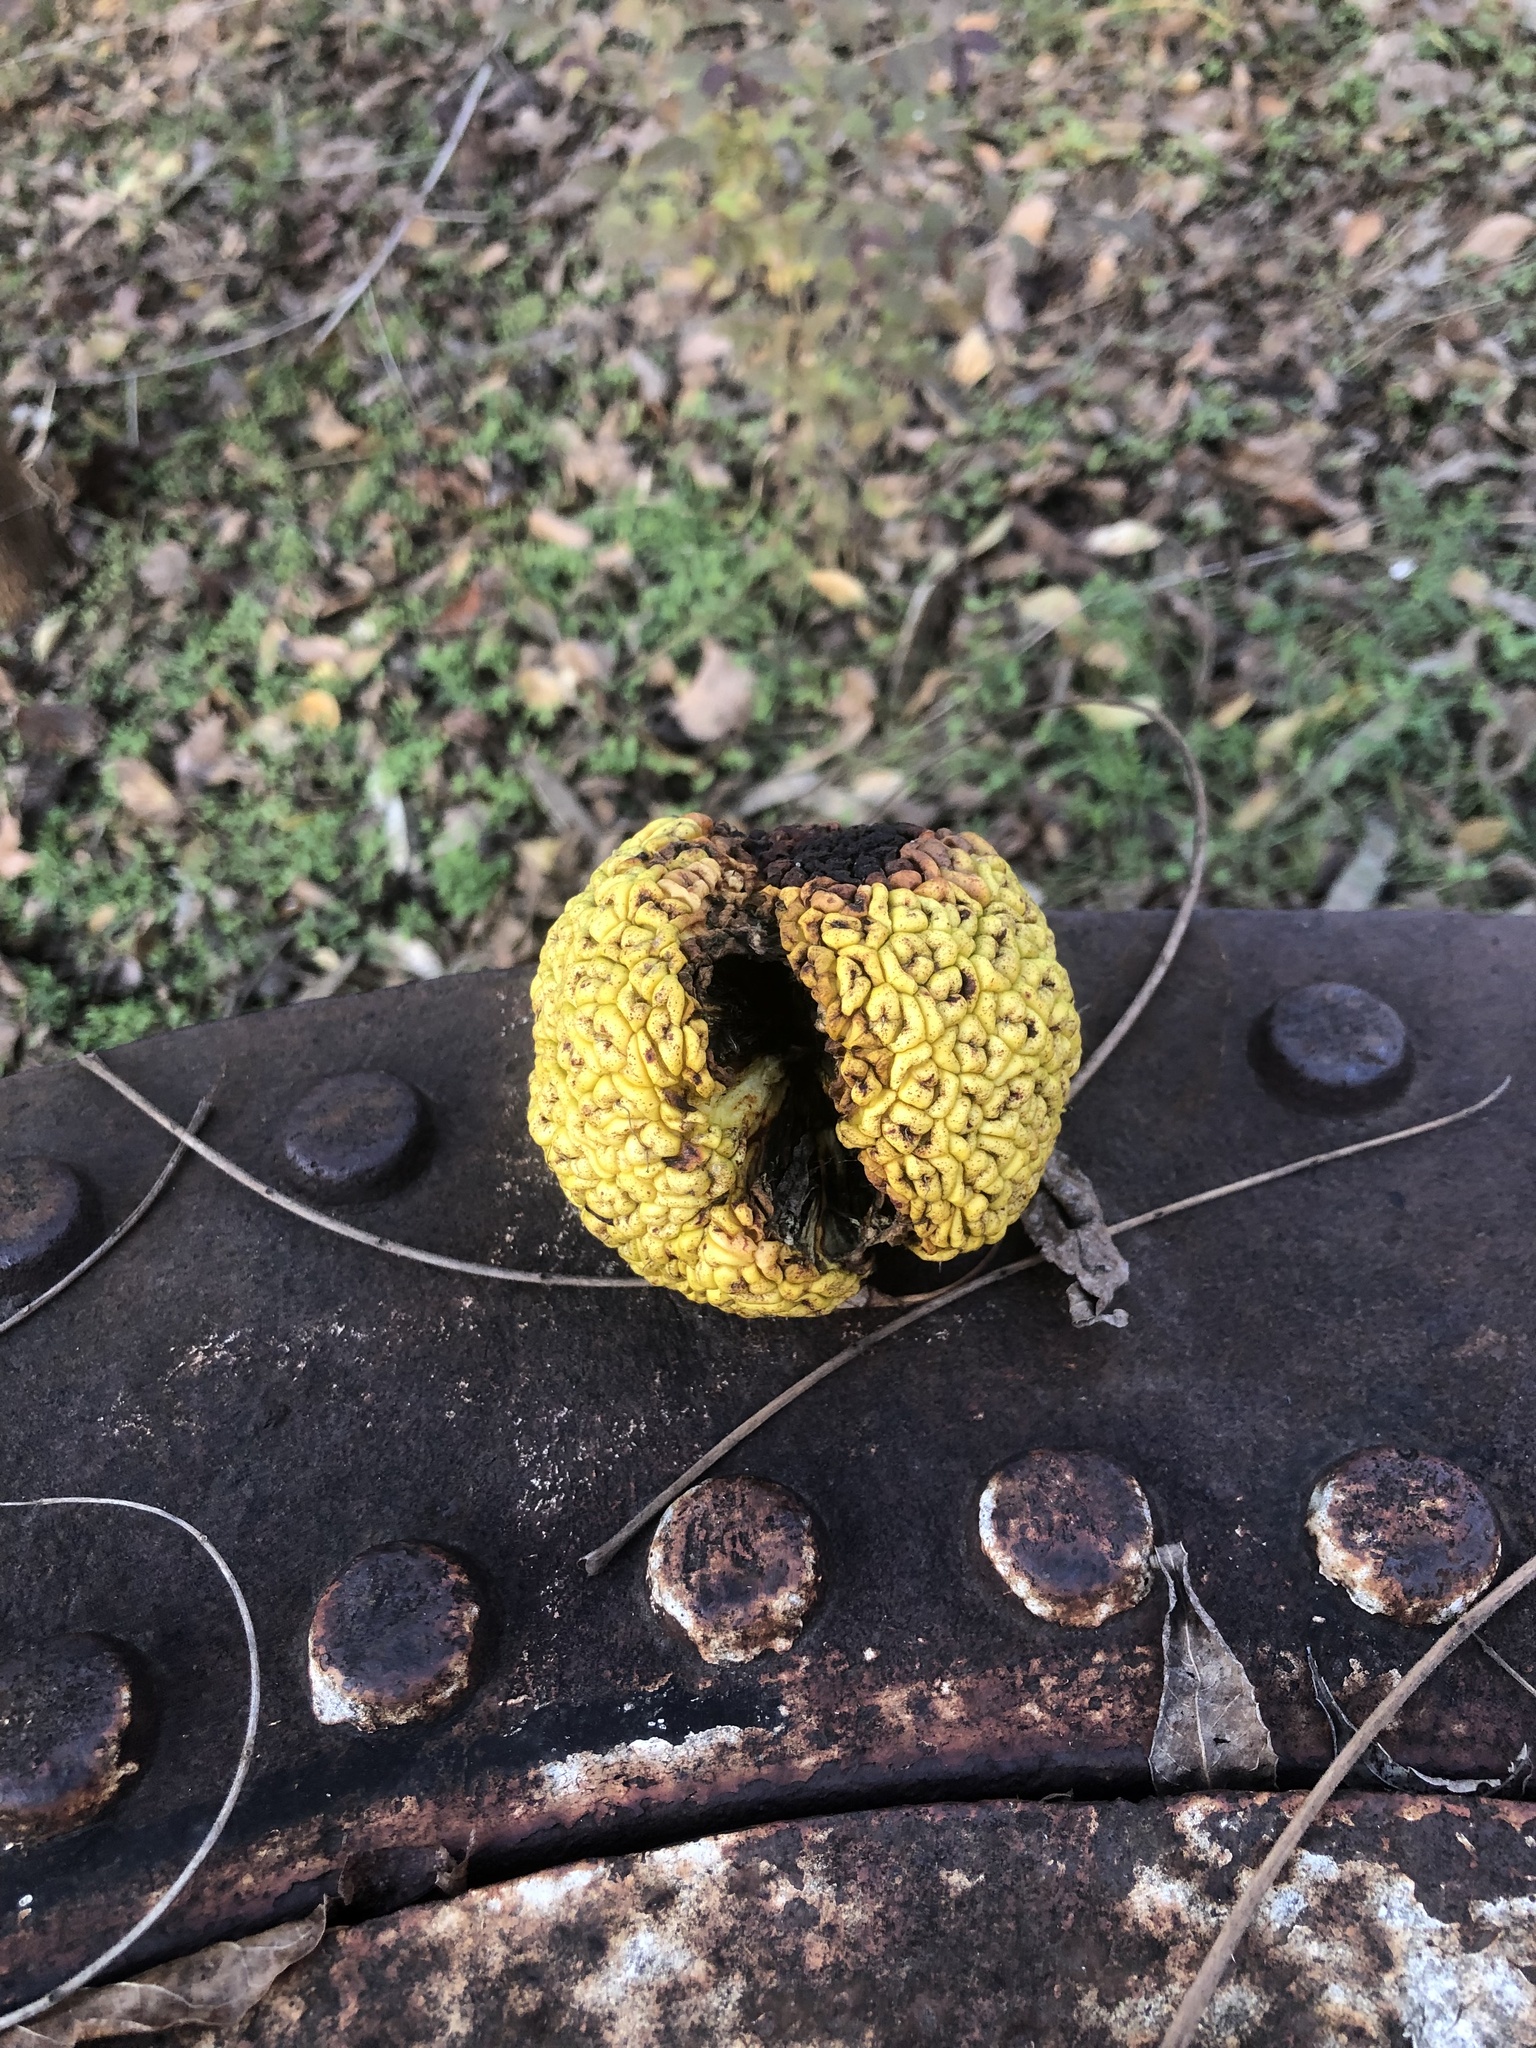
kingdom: Plantae
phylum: Tracheophyta
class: Magnoliopsida
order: Rosales
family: Moraceae
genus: Maclura
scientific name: Maclura pomifera
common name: Osage-orange
